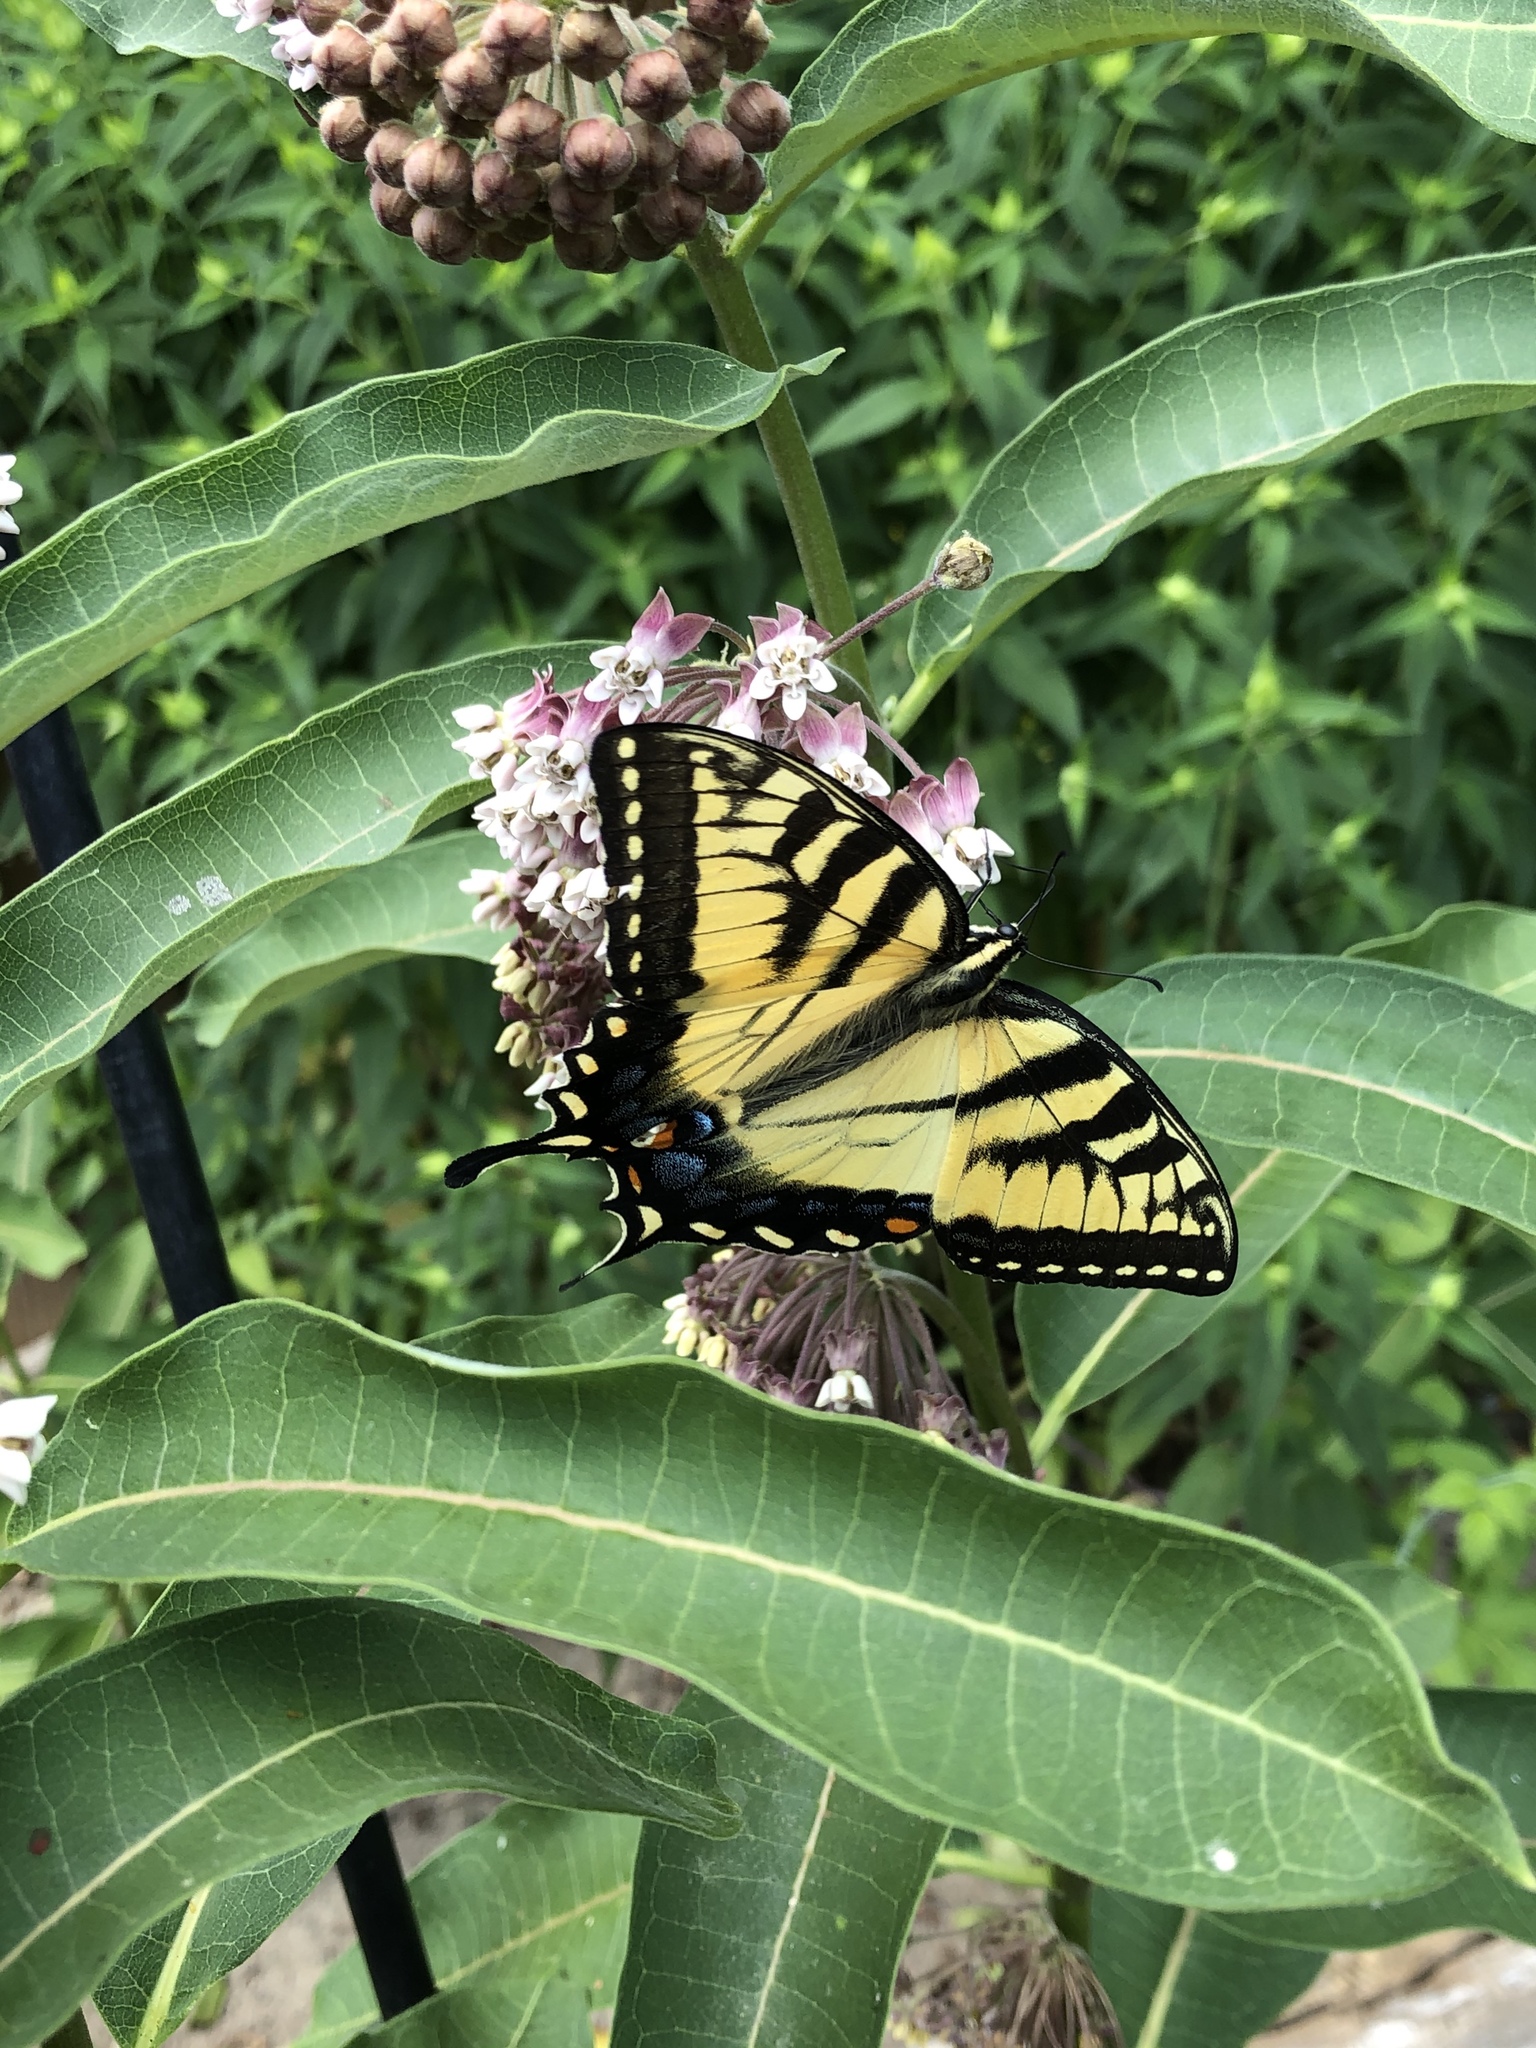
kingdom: Animalia
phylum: Arthropoda
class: Insecta
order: Lepidoptera
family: Papilionidae
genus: Pterourus
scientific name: Pterourus
